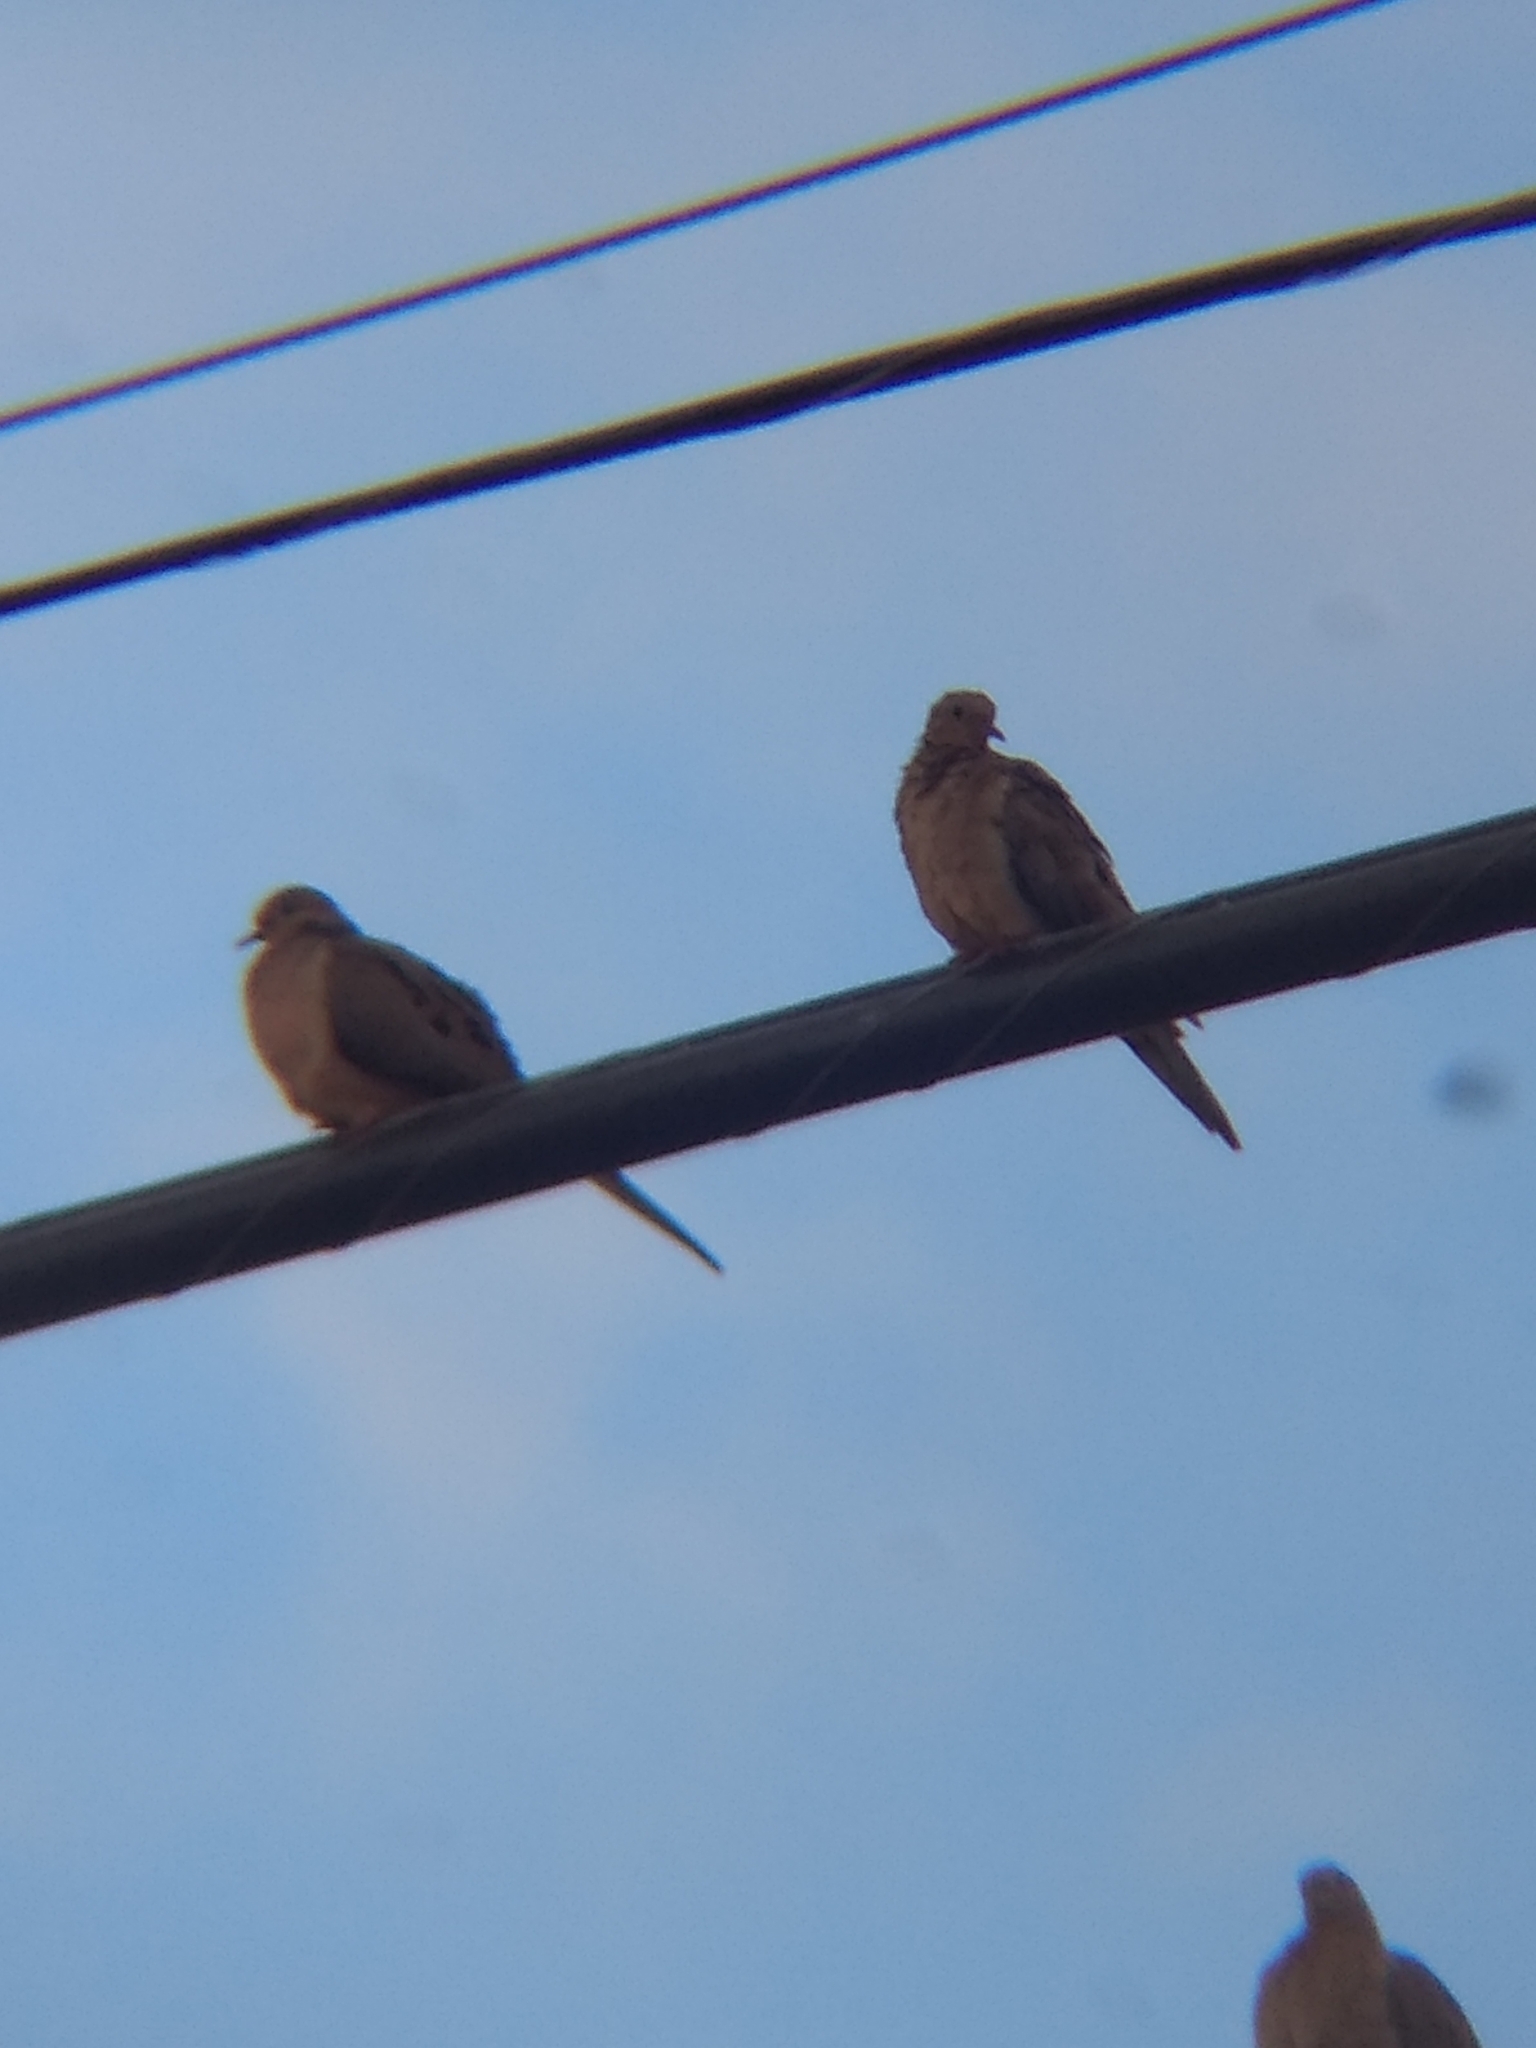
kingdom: Animalia
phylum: Chordata
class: Aves
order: Columbiformes
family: Columbidae
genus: Zenaida
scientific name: Zenaida macroura
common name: Mourning dove
